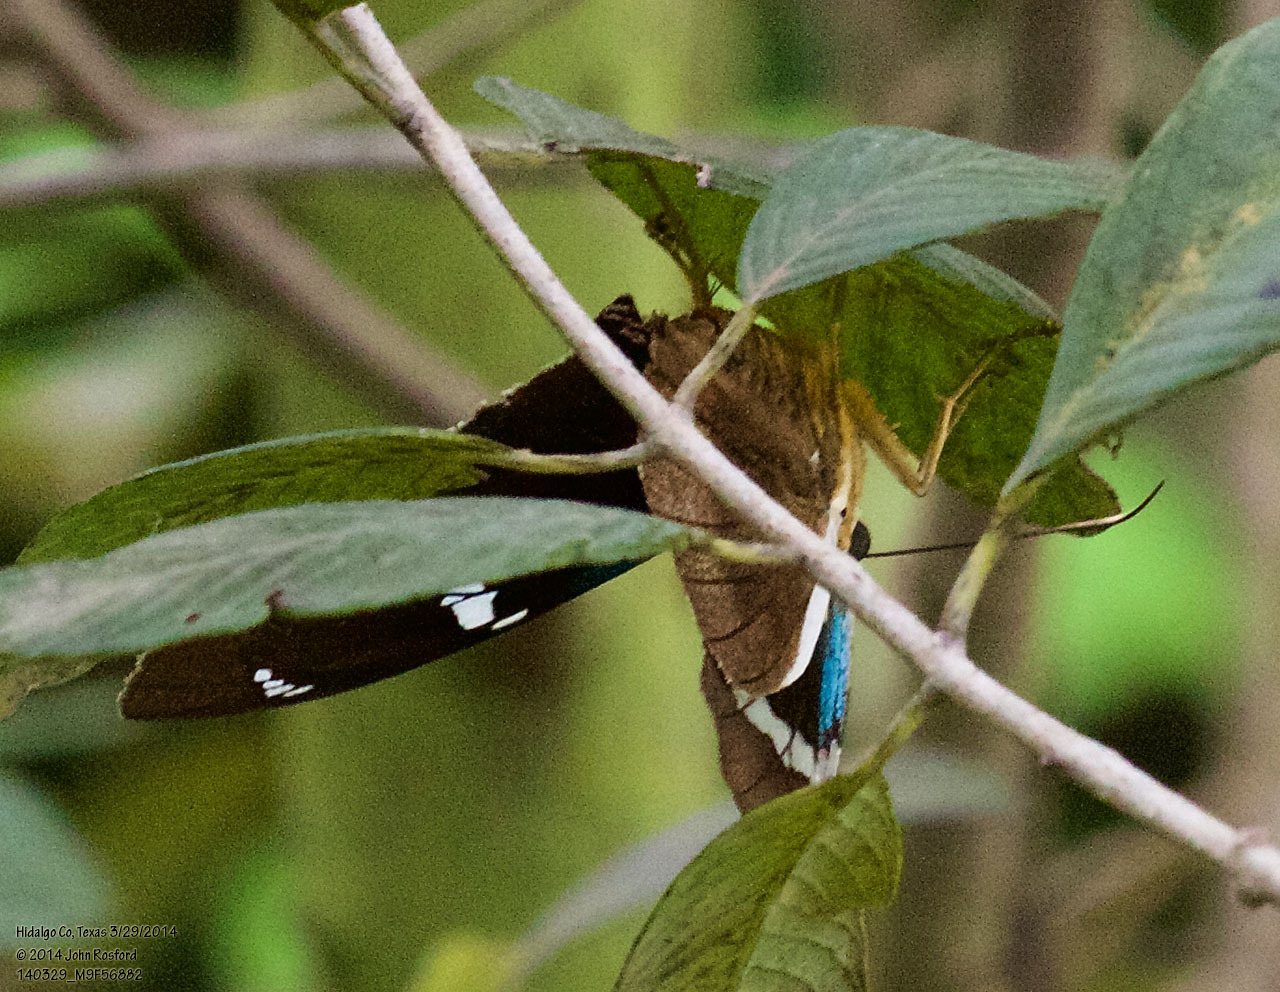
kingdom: Animalia
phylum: Arthropoda
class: Insecta
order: Lepidoptera
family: Hesperiidae
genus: Astraptes
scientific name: Astraptes fulgerator
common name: Two-barred flasher
